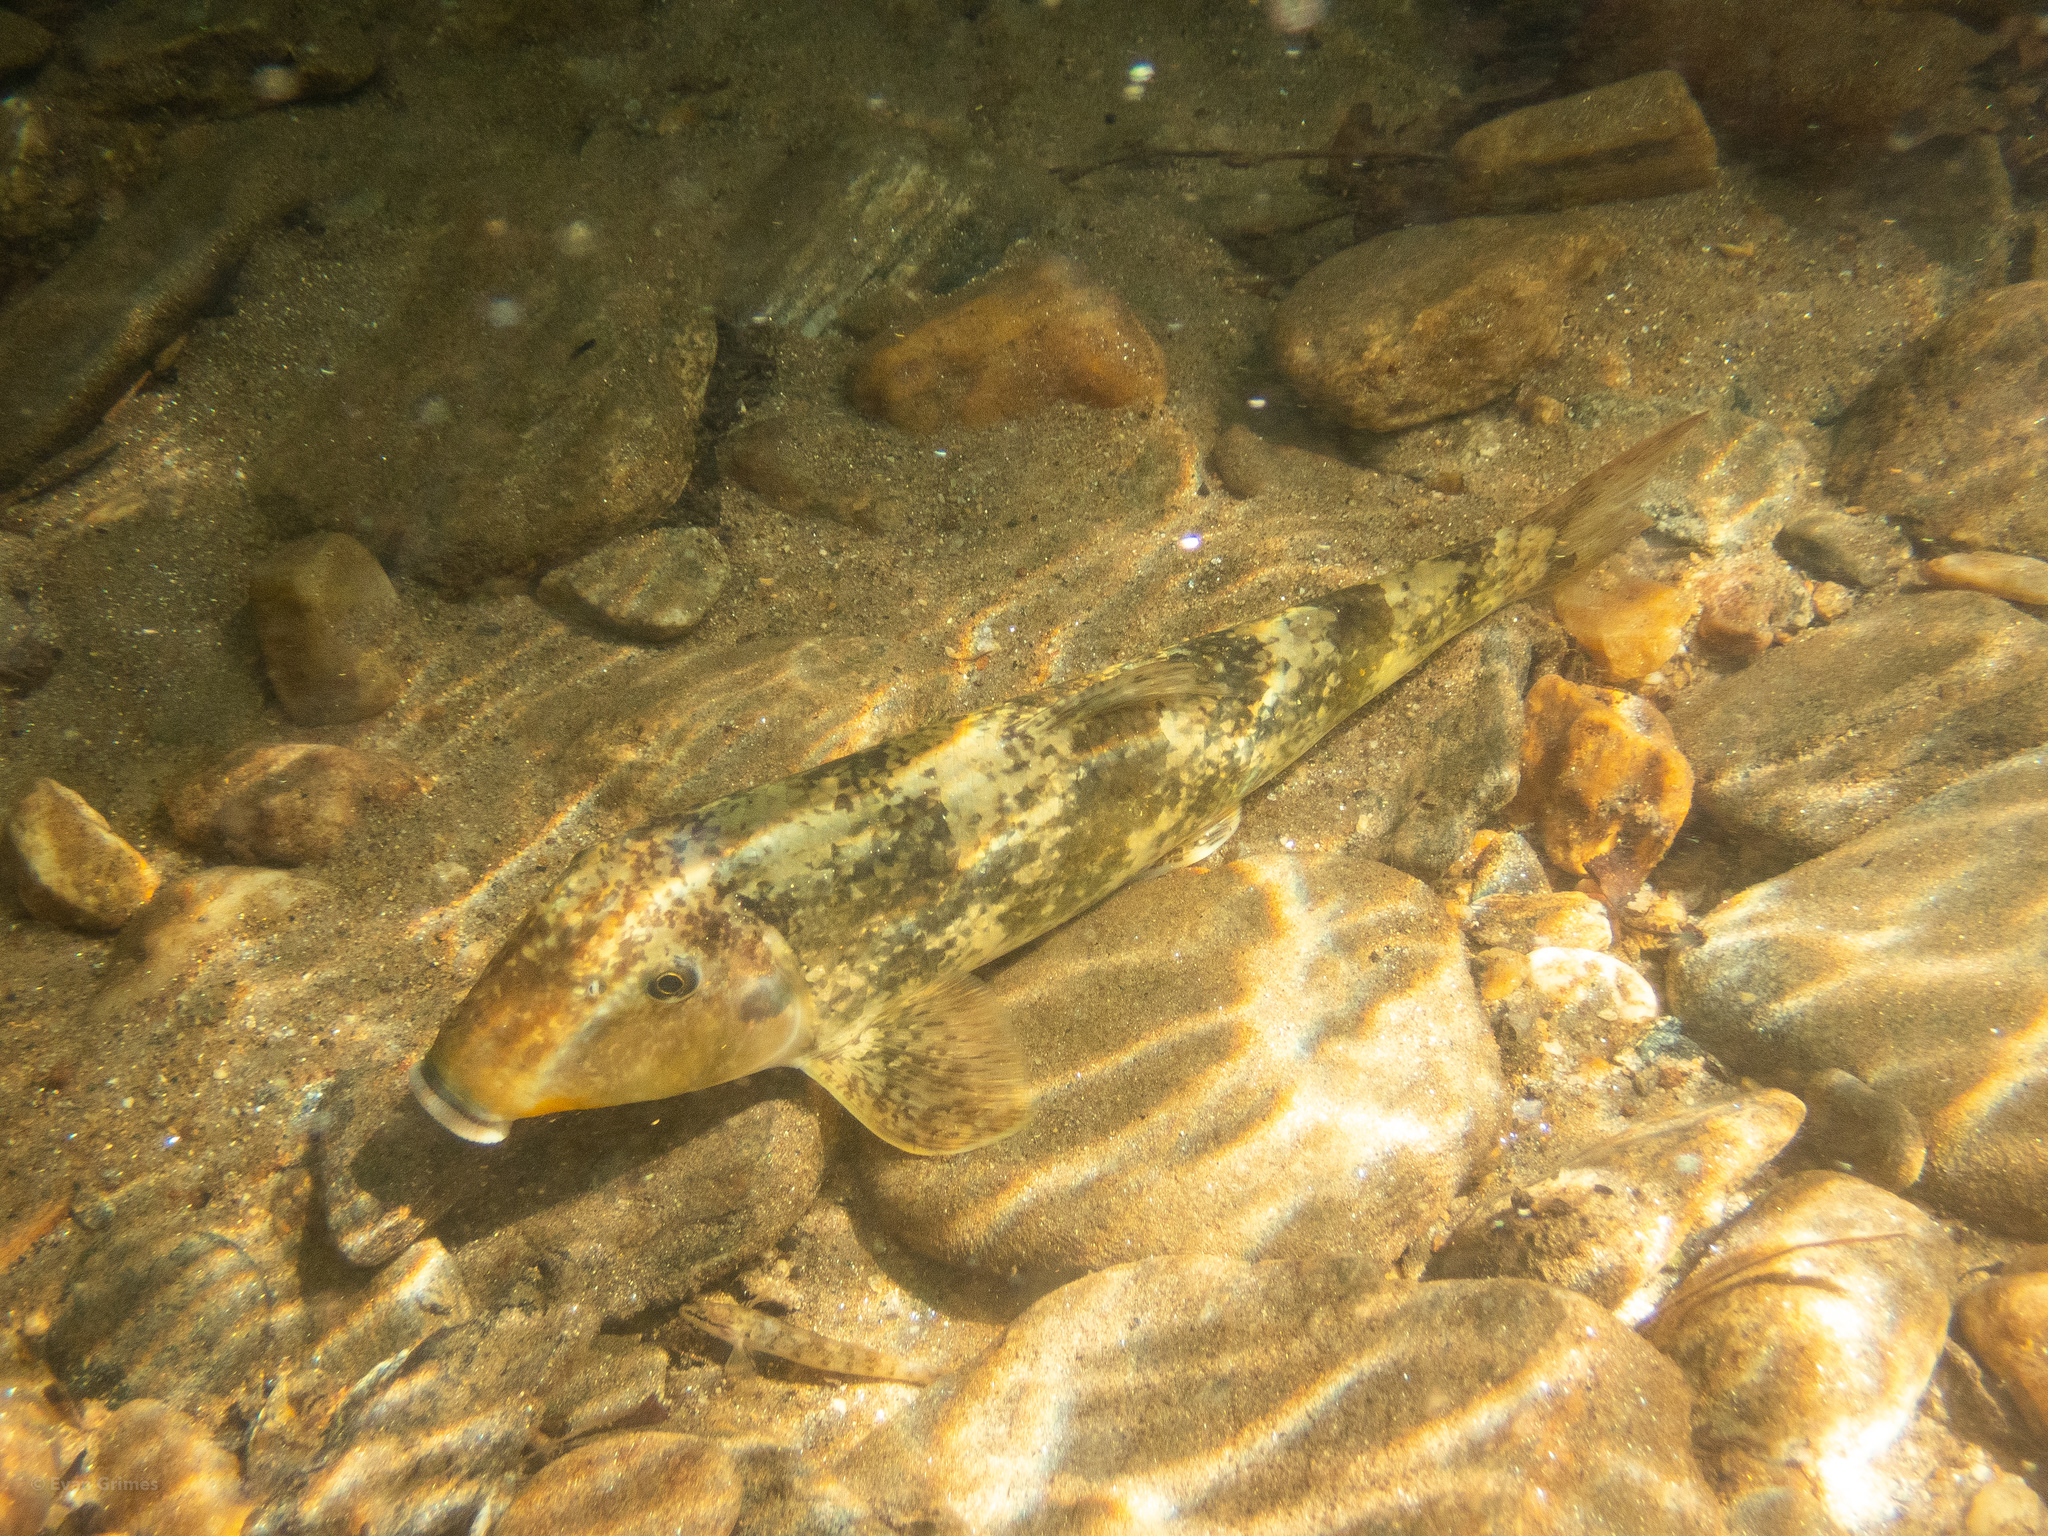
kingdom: Animalia
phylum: Chordata
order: Cypriniformes
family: Catostomidae
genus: Hypentelium
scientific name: Hypentelium nigricans
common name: Northern hog sucker
